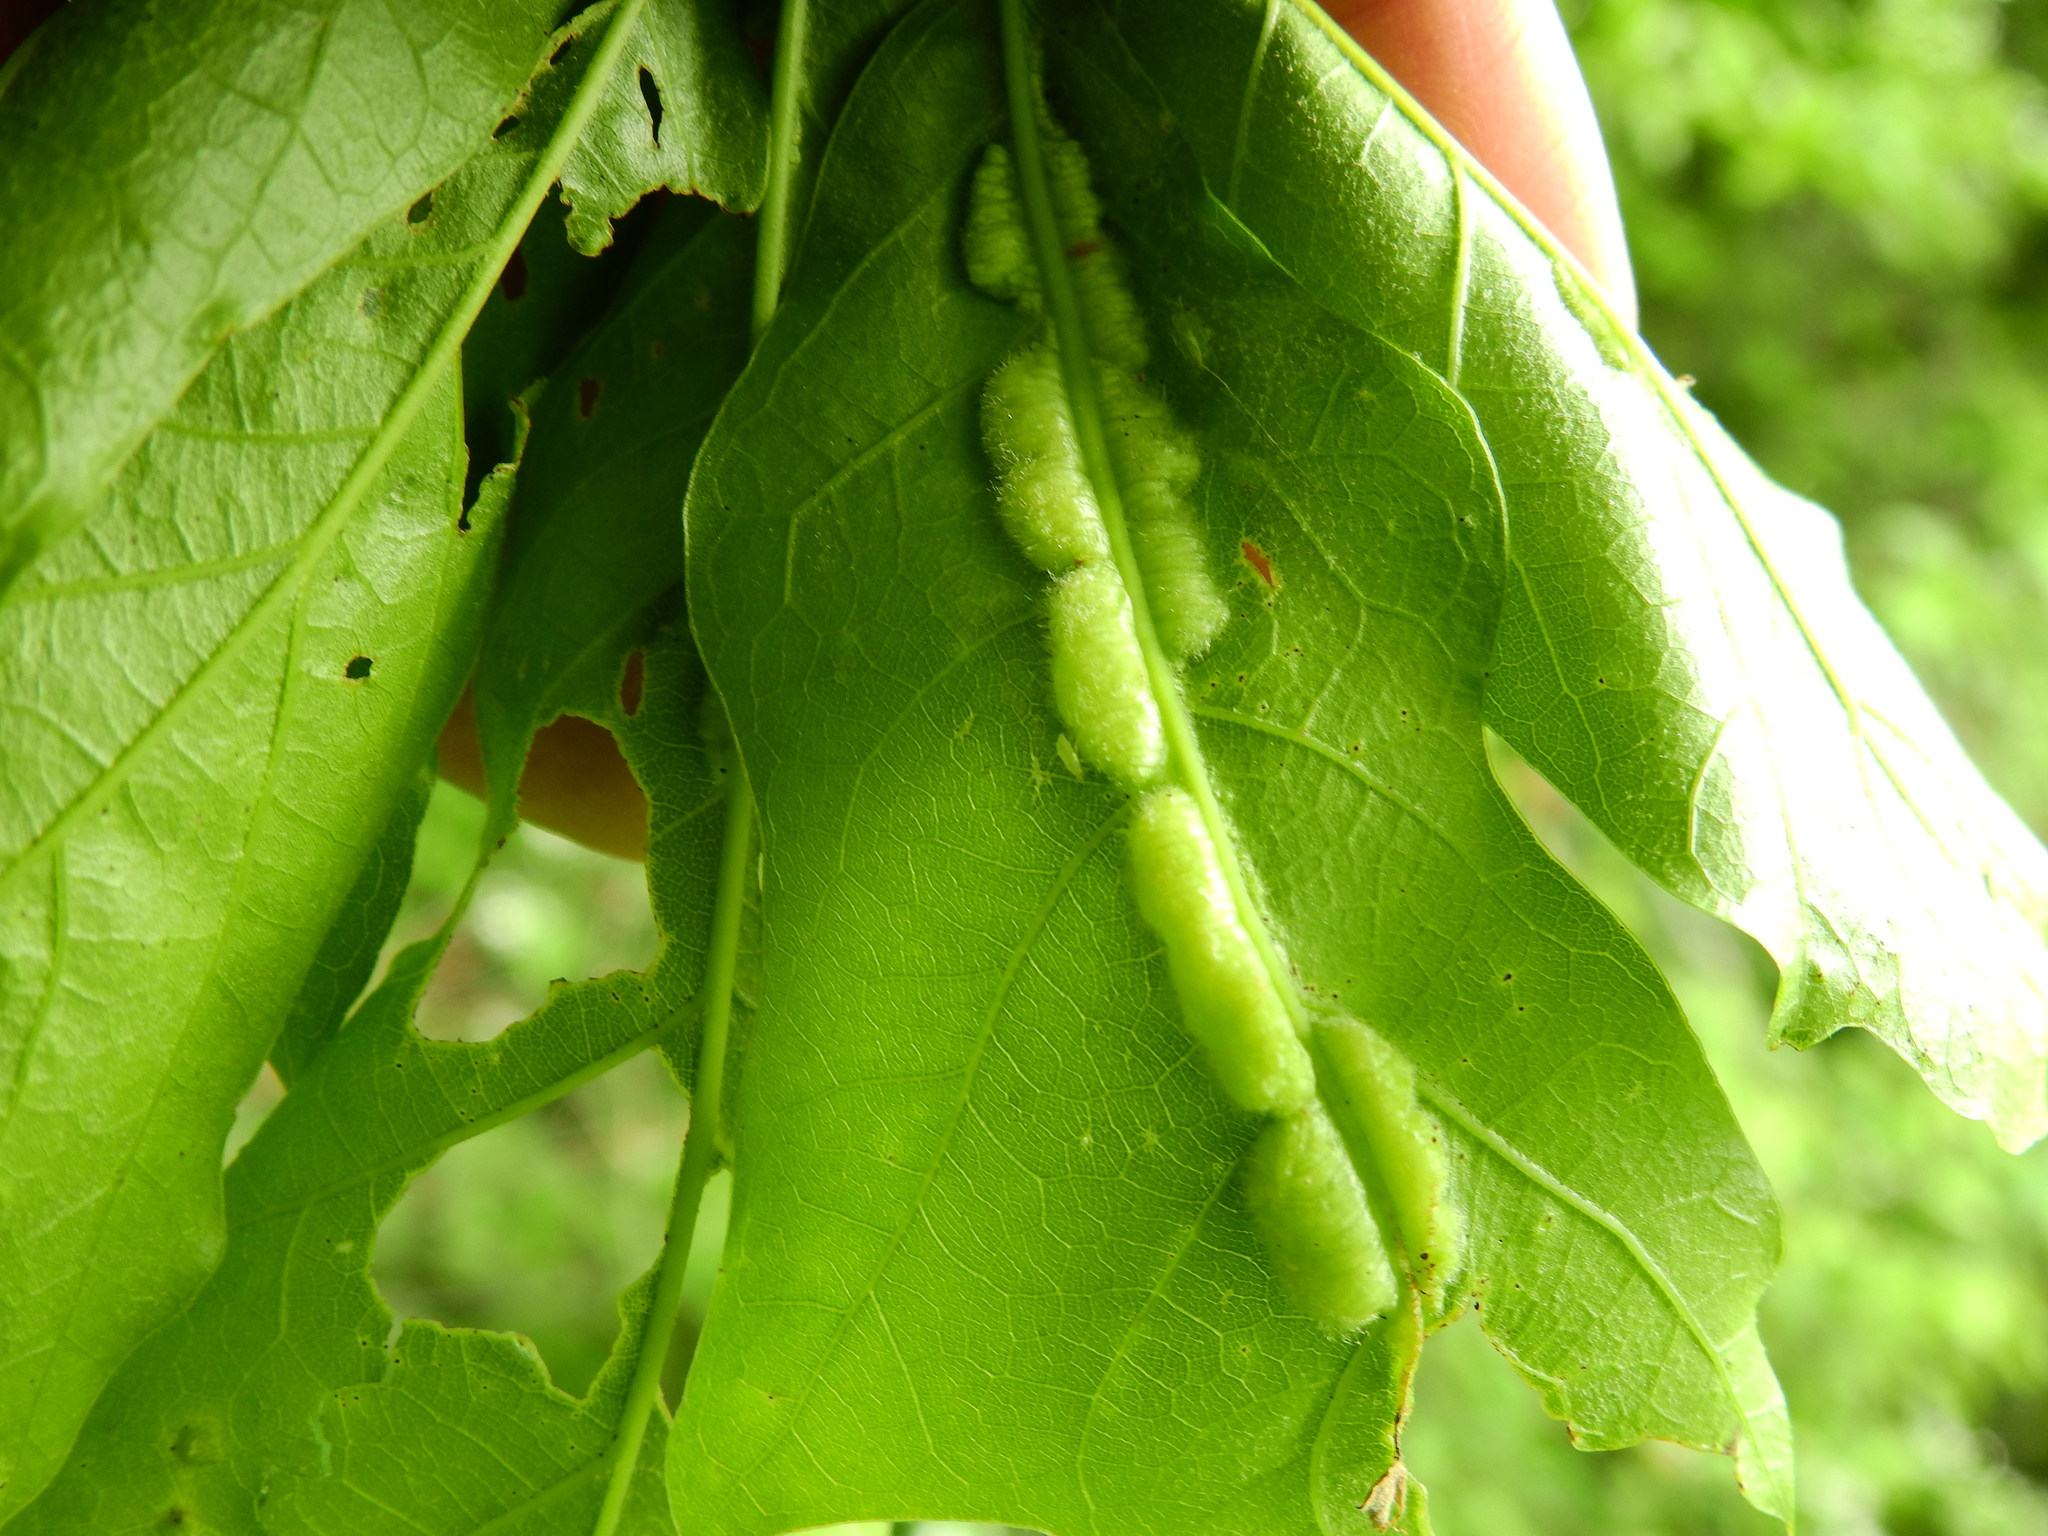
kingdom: Animalia
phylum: Arthropoda
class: Insecta
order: Diptera
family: Cecidomyiidae
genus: Macrodiplosis
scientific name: Macrodiplosis niveipila
